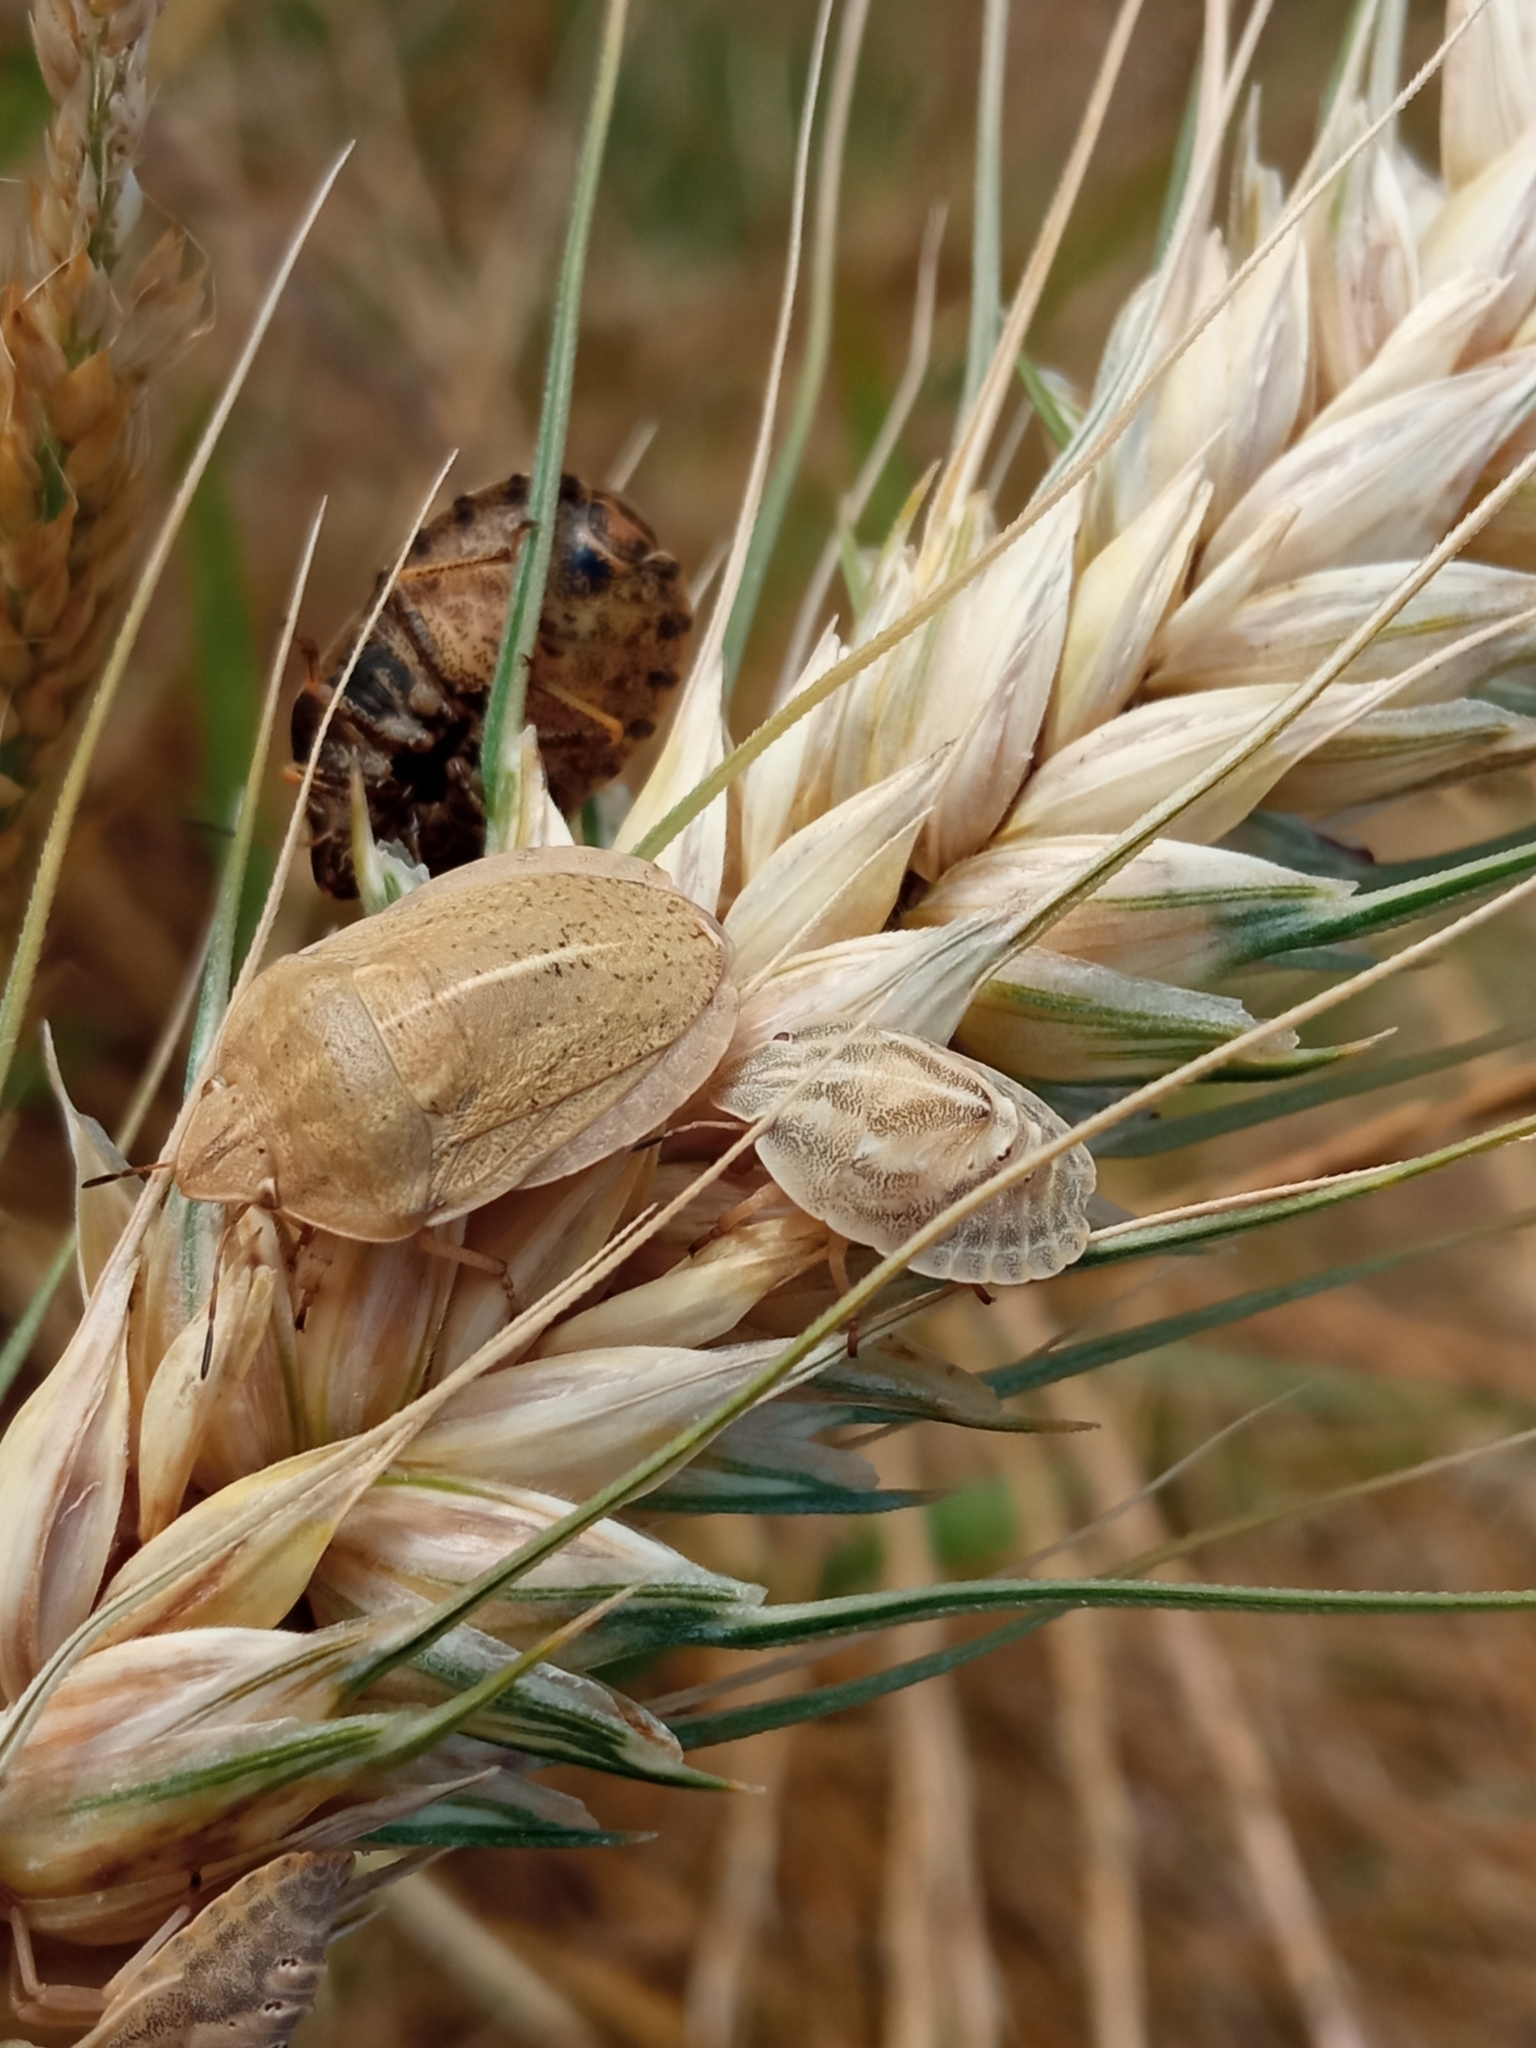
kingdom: Animalia
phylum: Arthropoda
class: Insecta
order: Hemiptera
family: Scutelleridae
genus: Eurygaster
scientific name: Eurygaster austriaca
